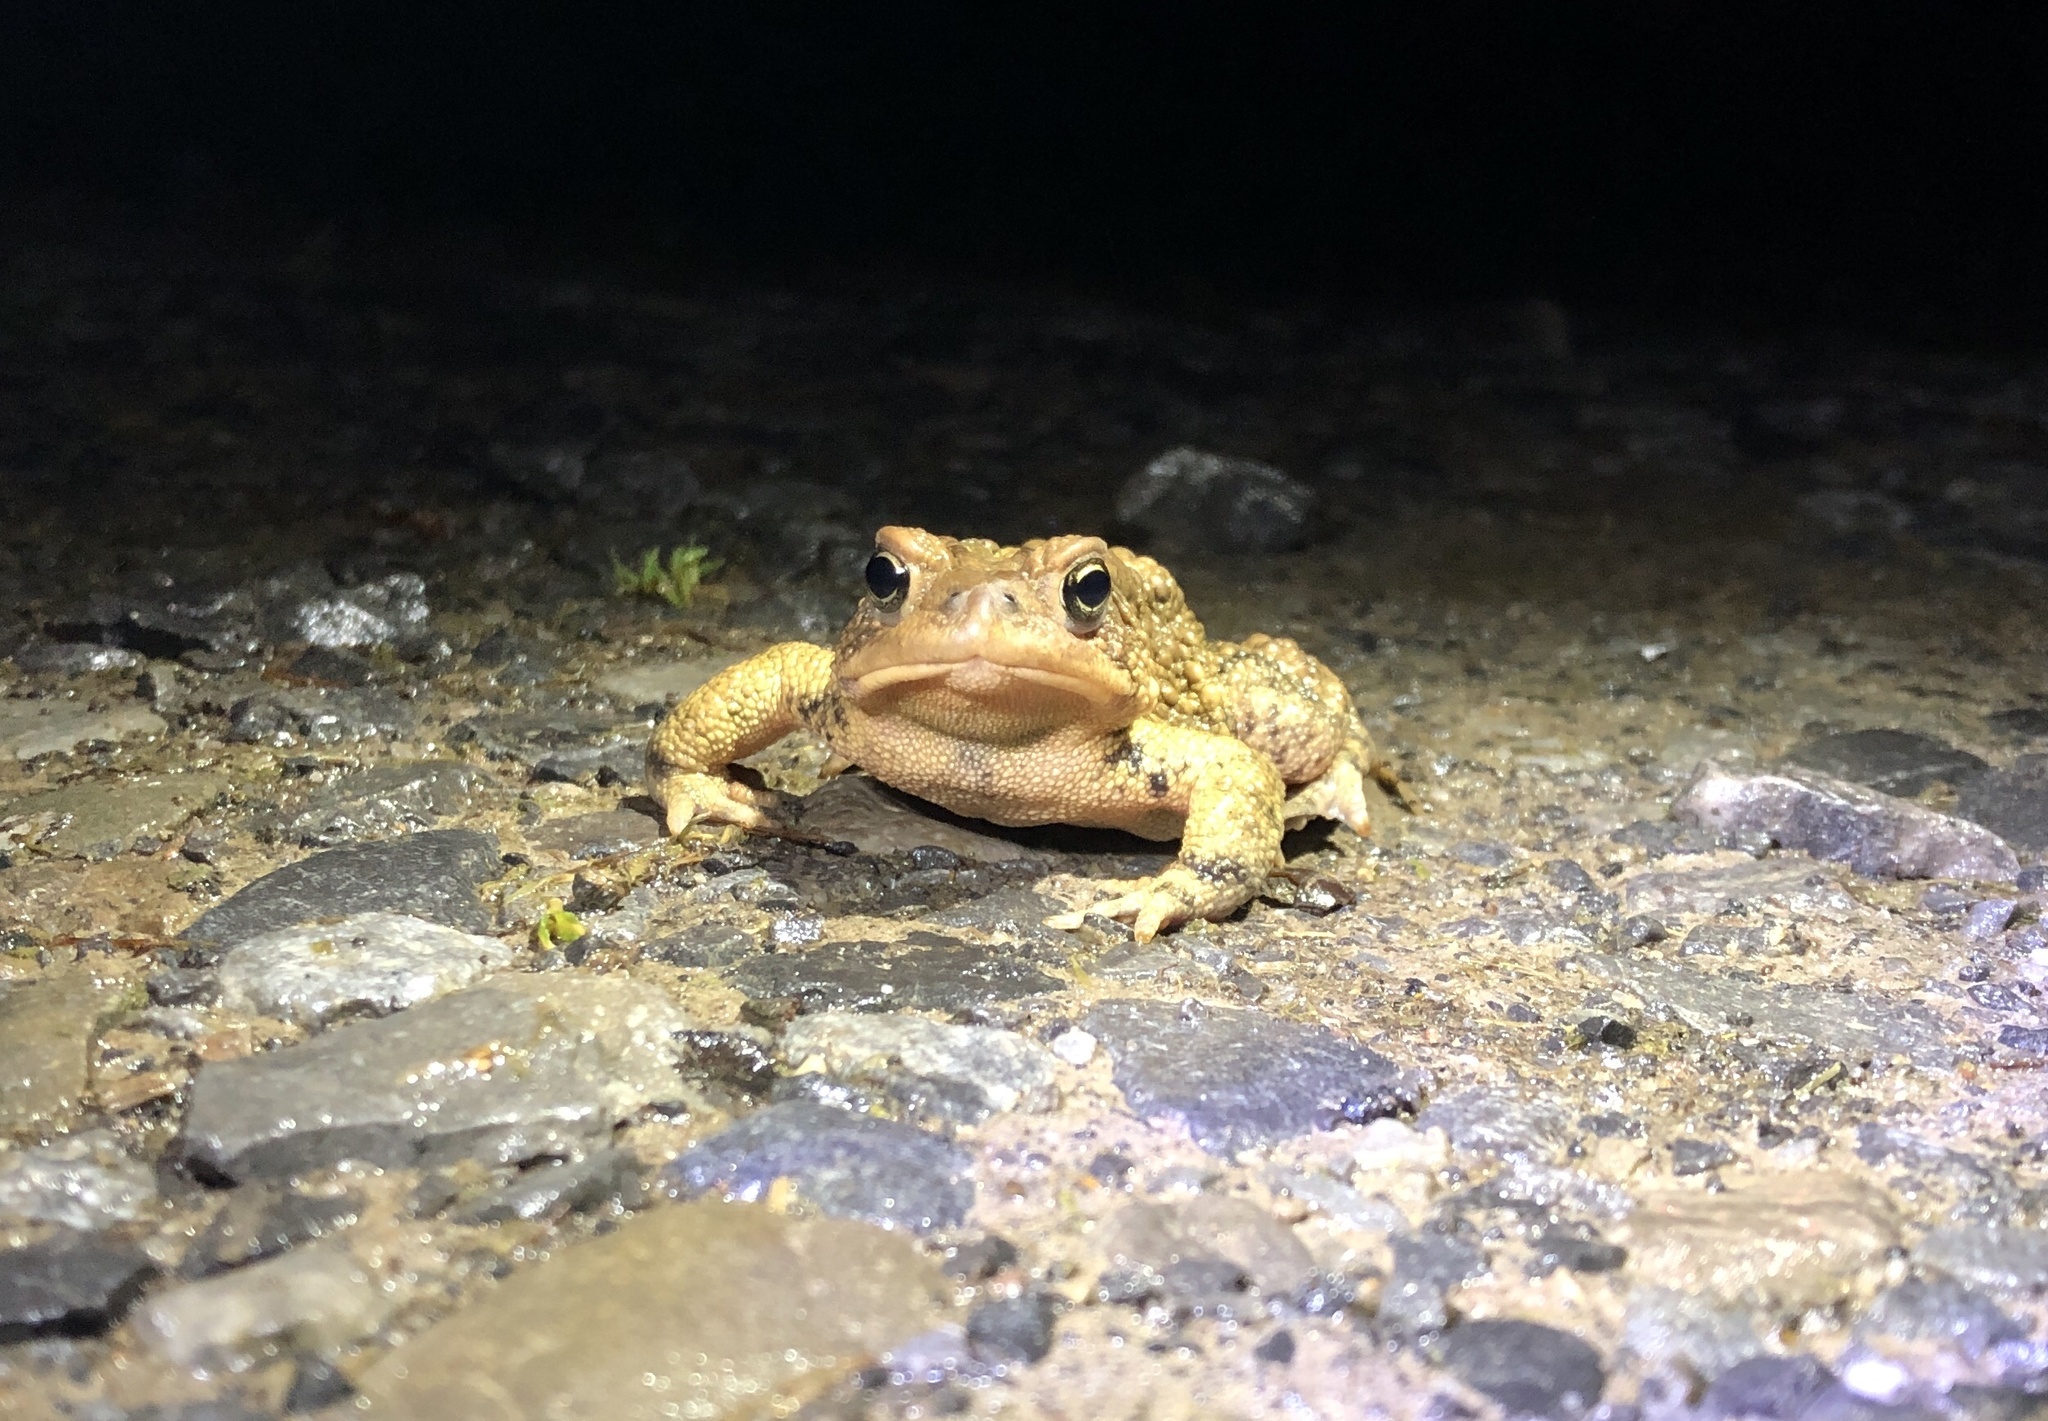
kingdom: Animalia
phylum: Chordata
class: Amphibia
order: Anura
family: Bufonidae
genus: Anaxyrus
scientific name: Anaxyrus americanus
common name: American toad
